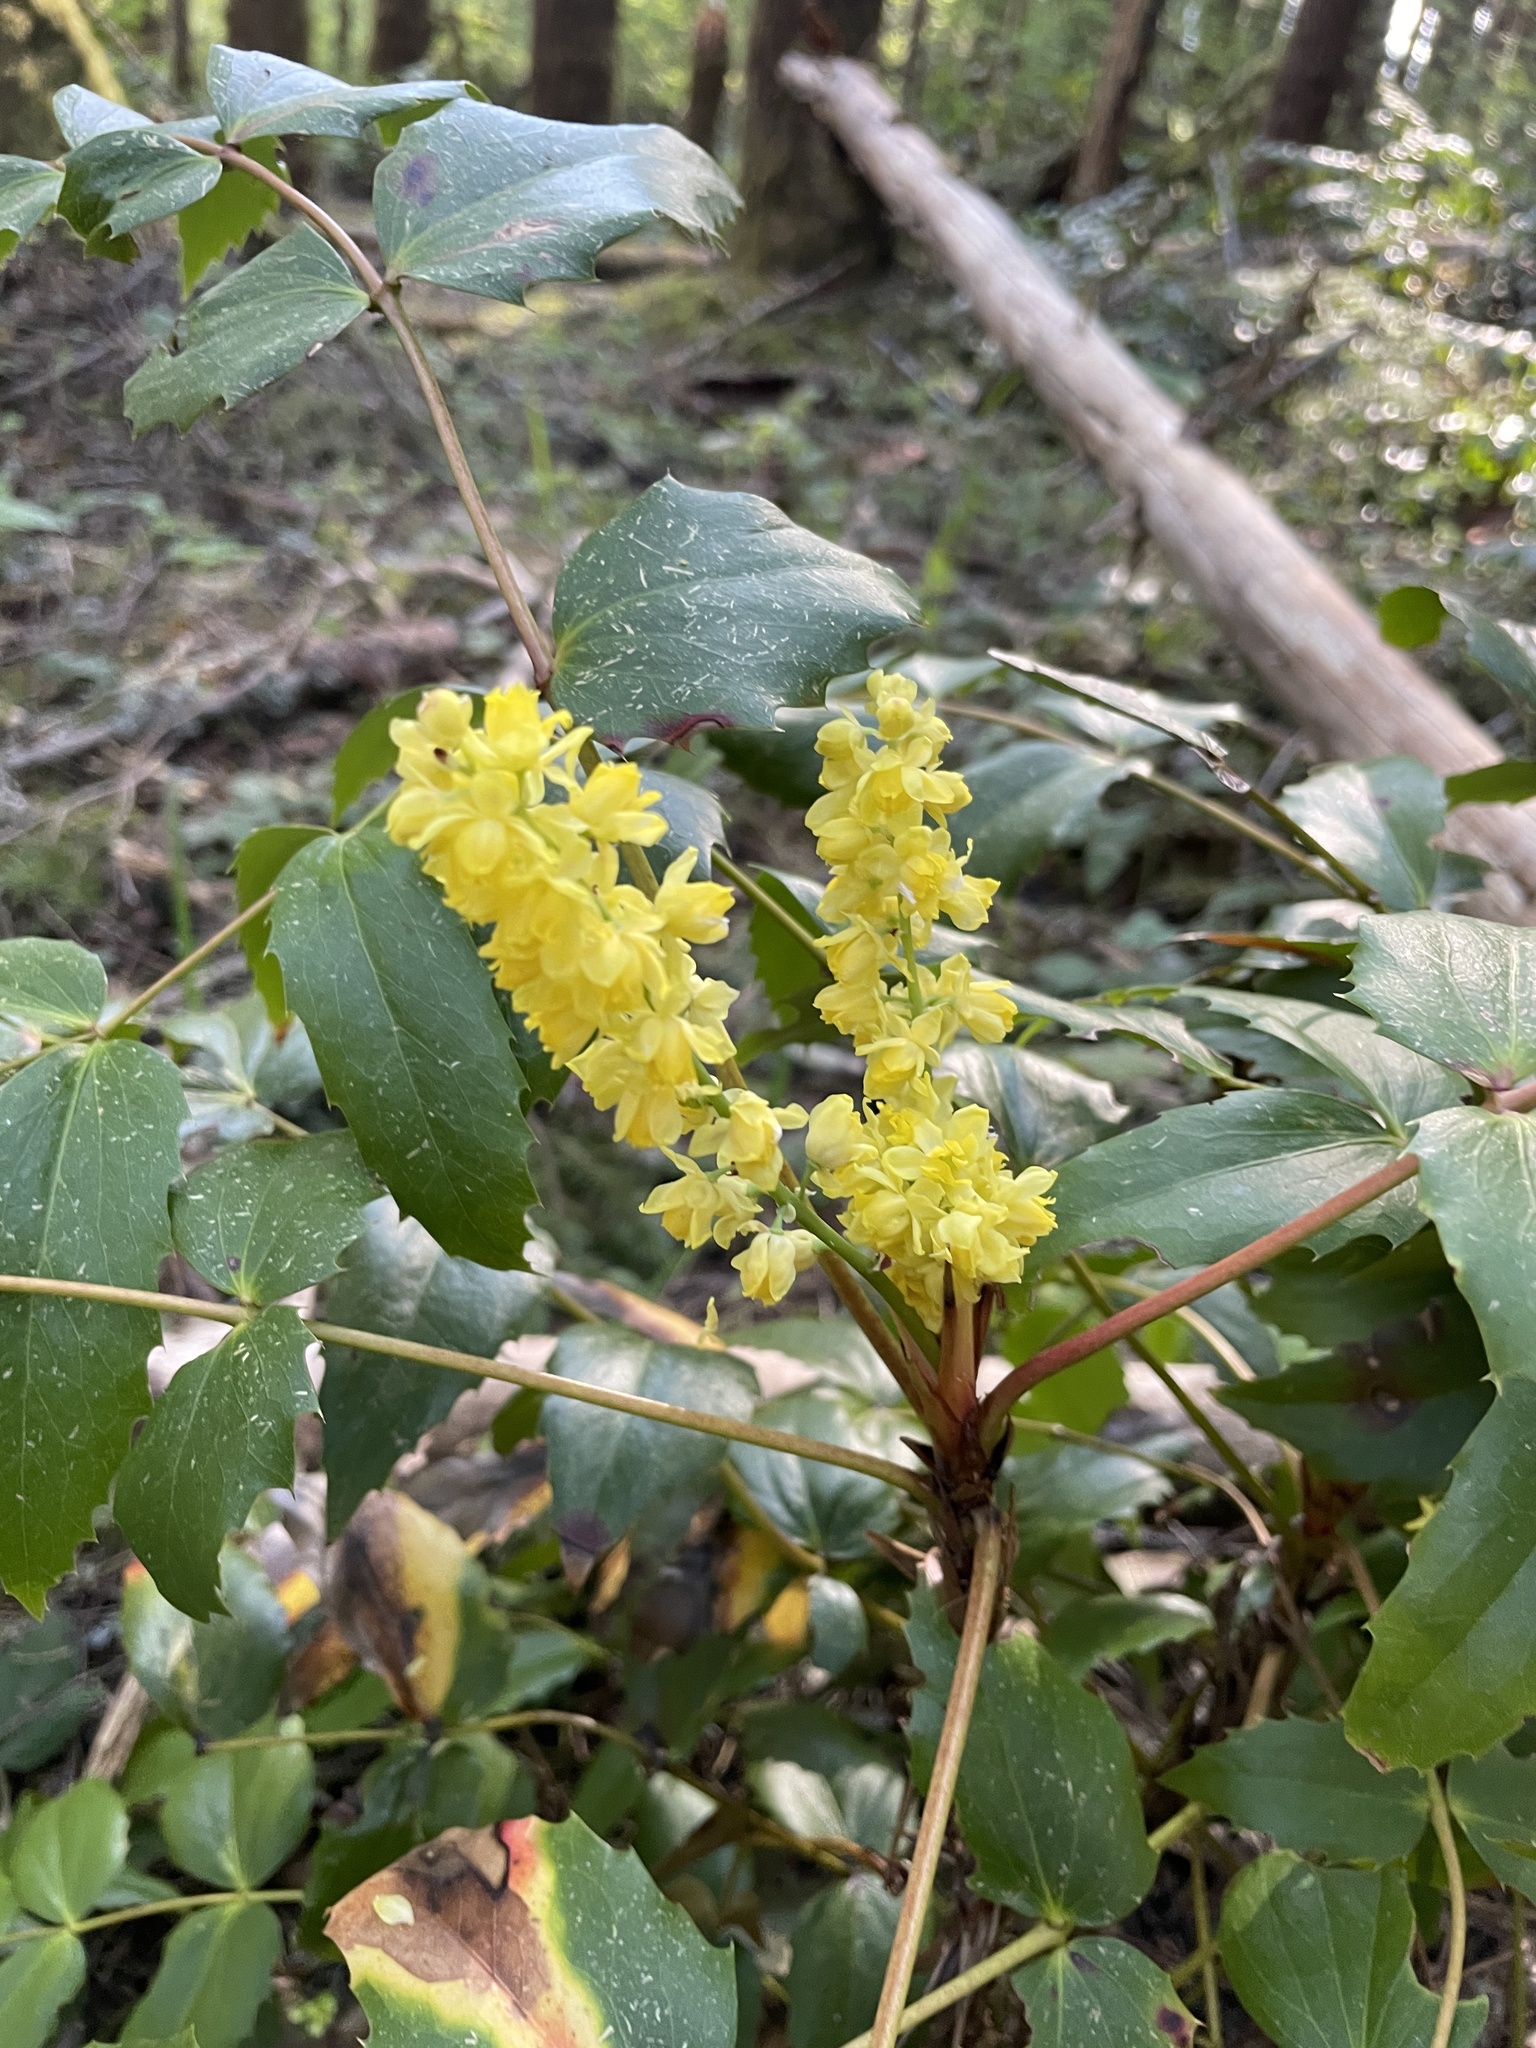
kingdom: Plantae
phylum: Tracheophyta
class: Magnoliopsida
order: Ranunculales
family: Berberidaceae
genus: Mahonia
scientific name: Mahonia nervosa
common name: Cascade oregon-grape
